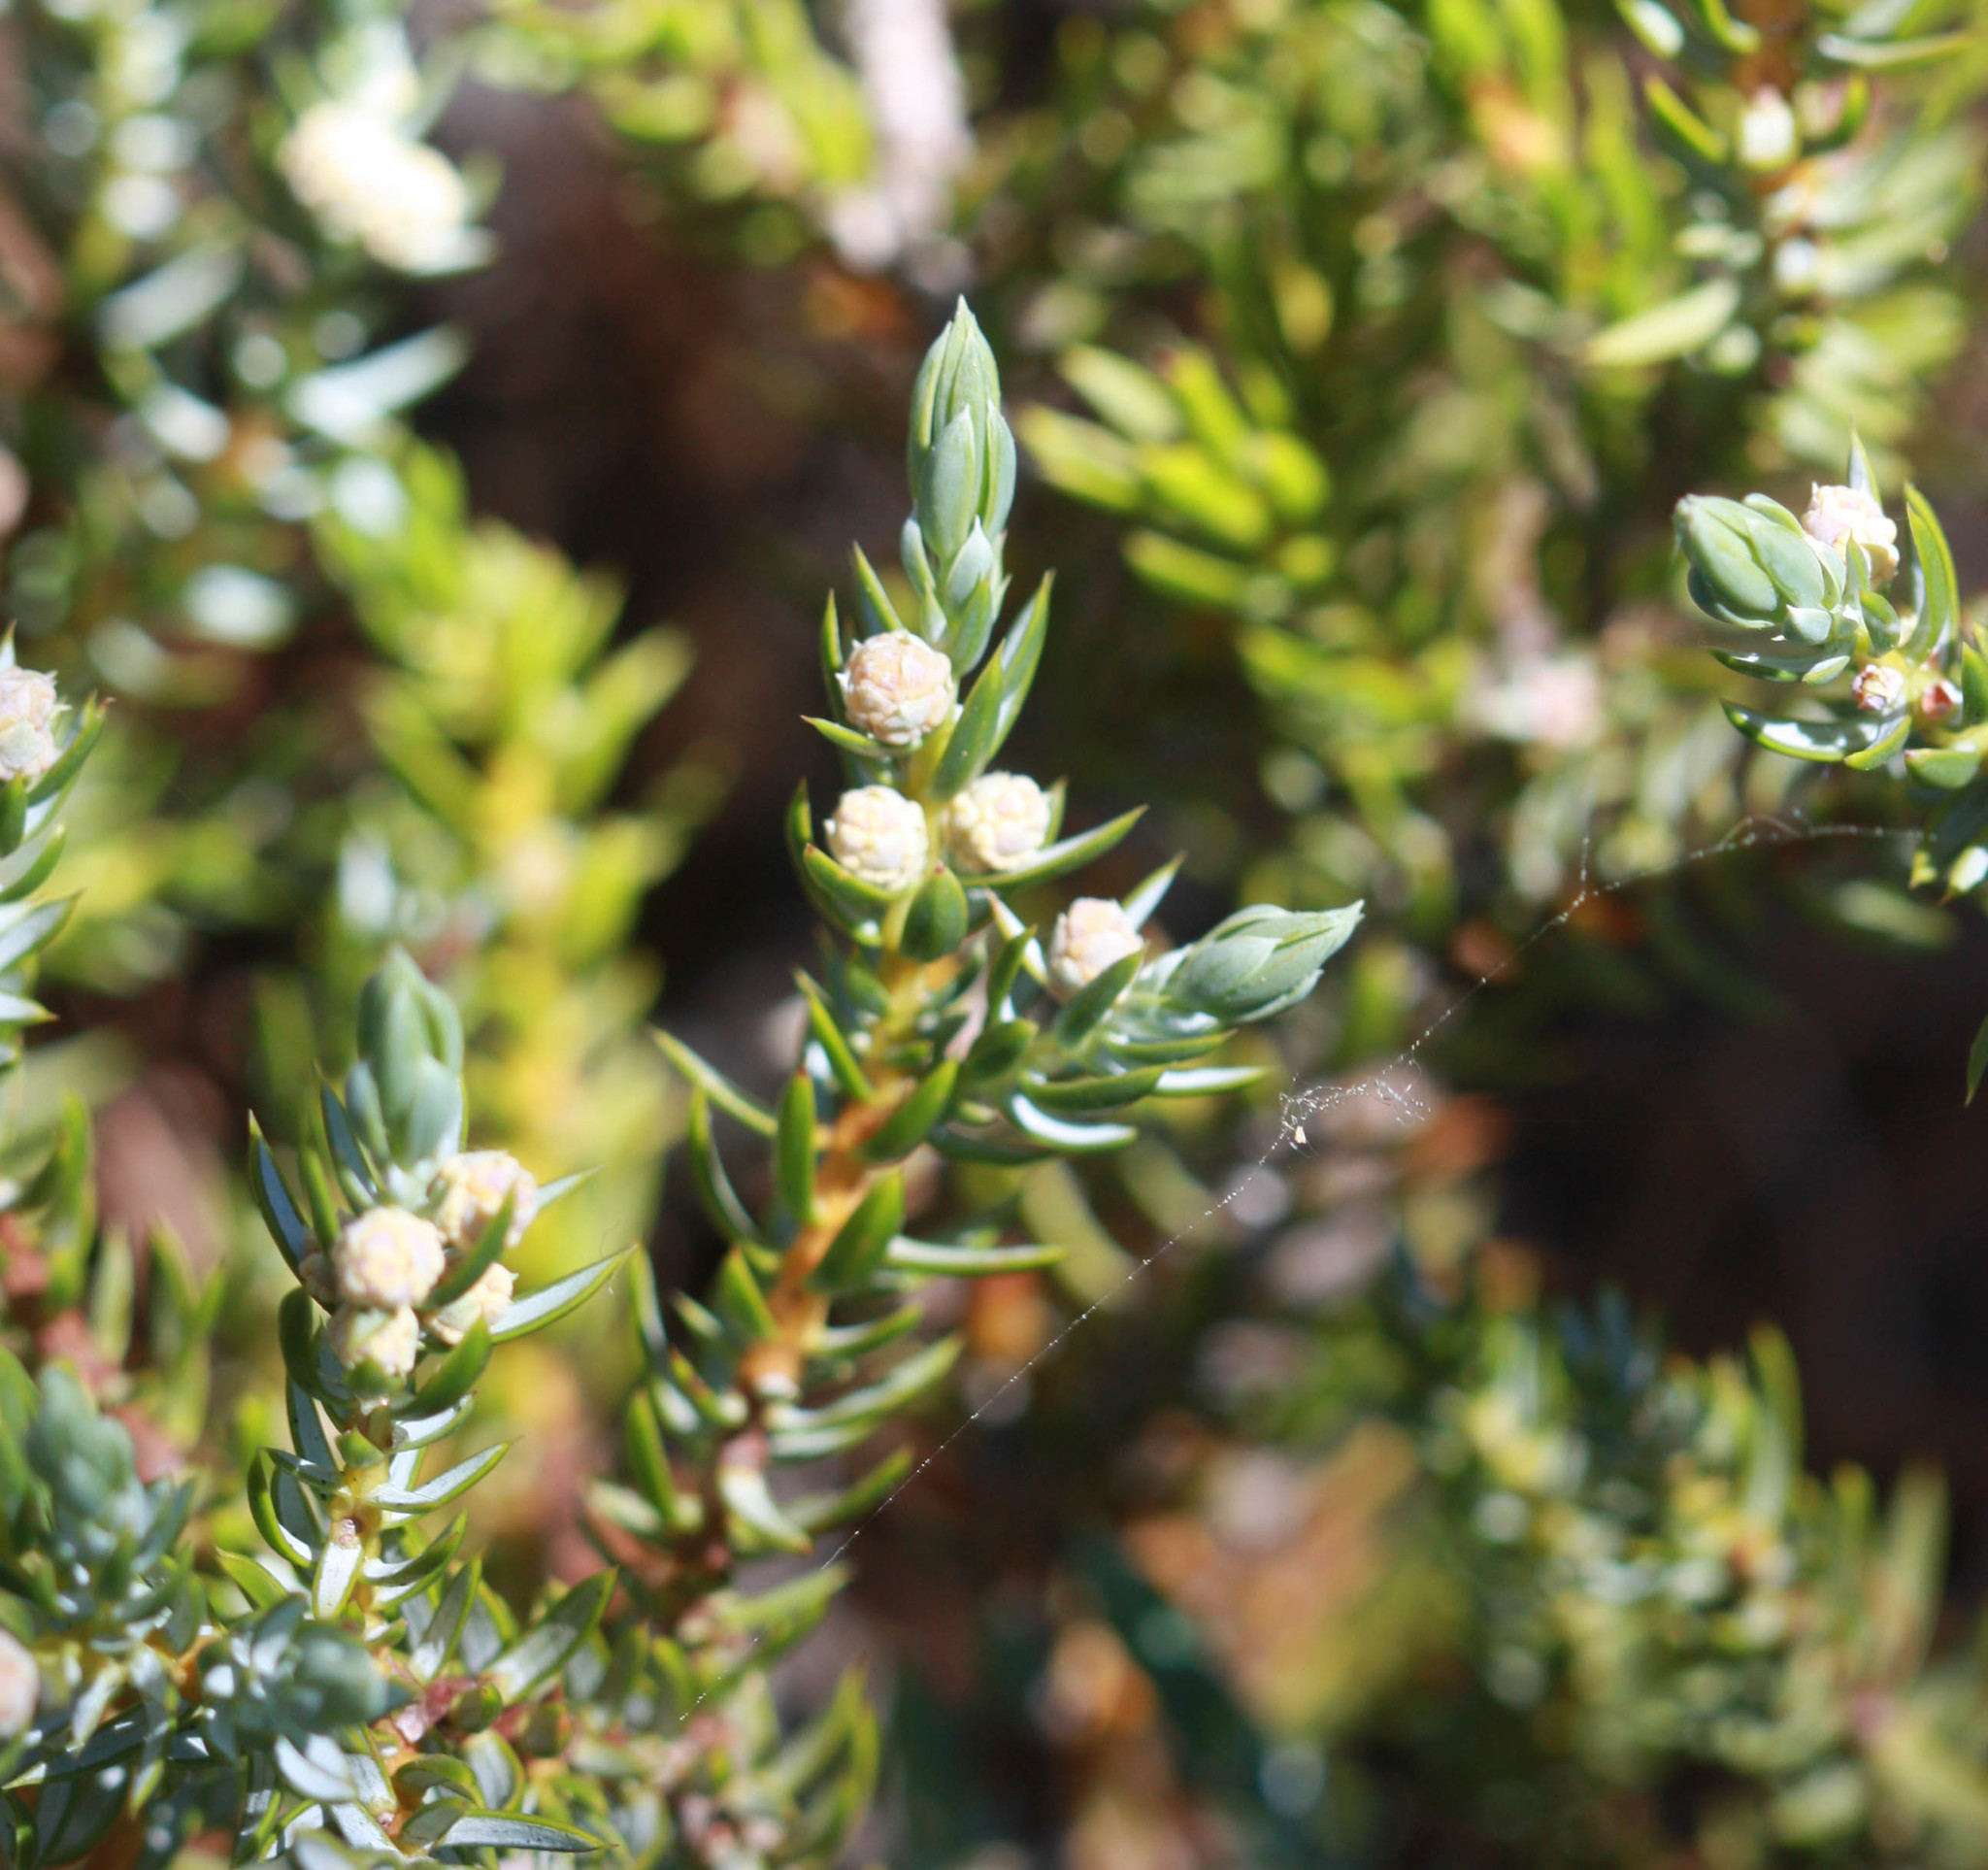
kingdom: Plantae
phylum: Tracheophyta
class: Pinopsida
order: Pinales
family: Cupressaceae
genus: Juniperus
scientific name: Juniperus communis
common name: Common juniper
